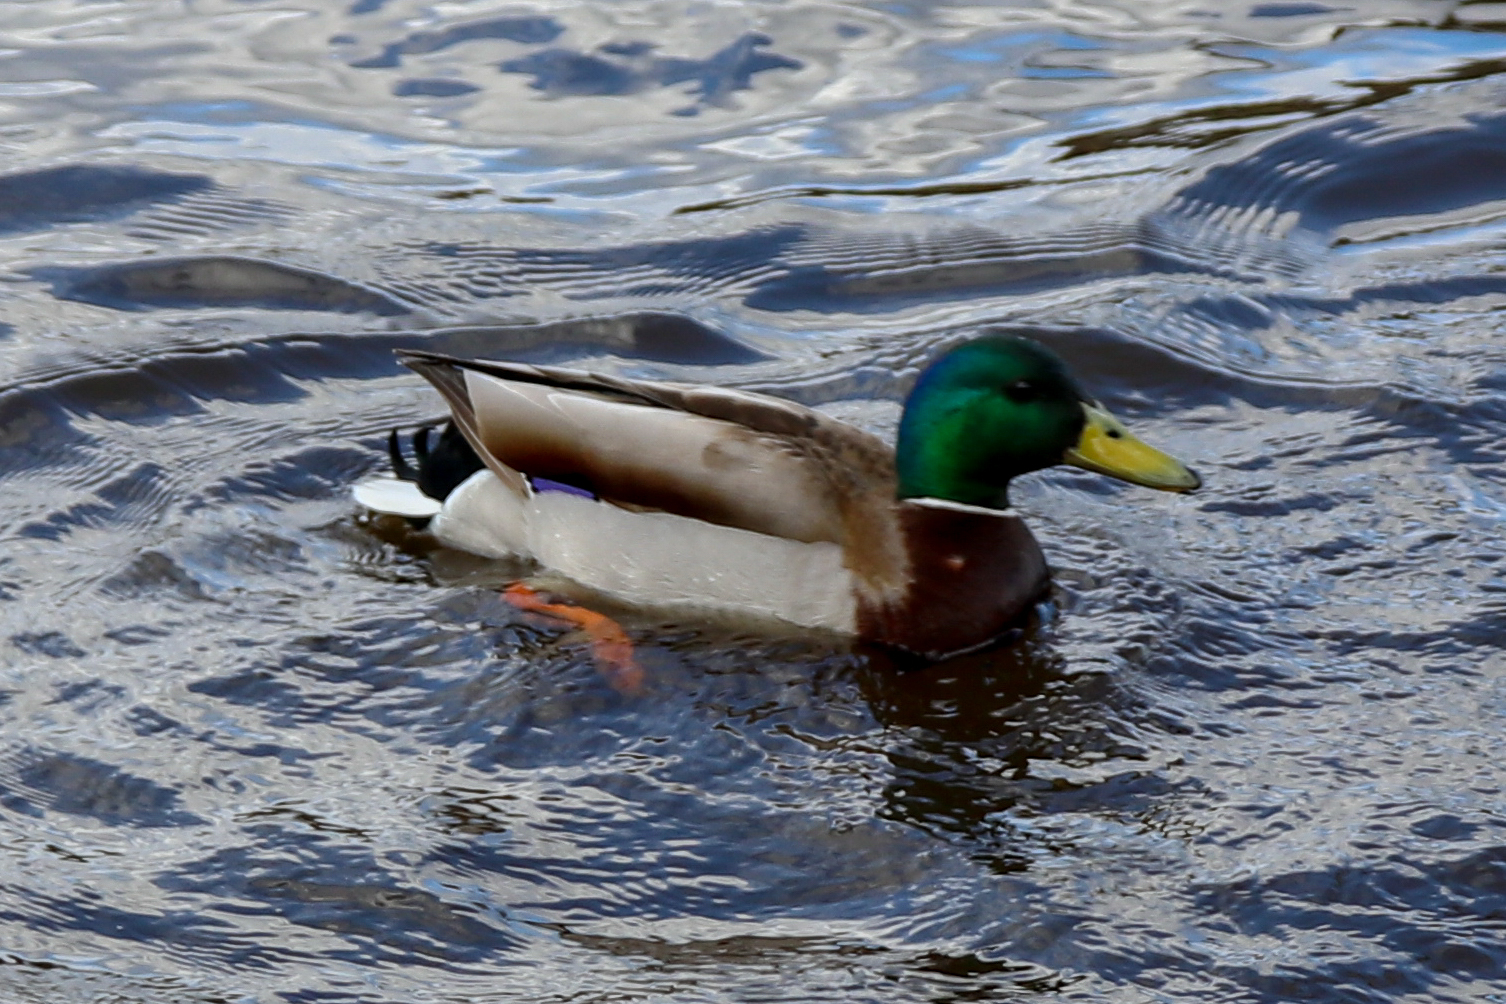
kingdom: Animalia
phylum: Chordata
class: Aves
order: Anseriformes
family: Anatidae
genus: Anas
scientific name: Anas platyrhynchos
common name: Mallard
